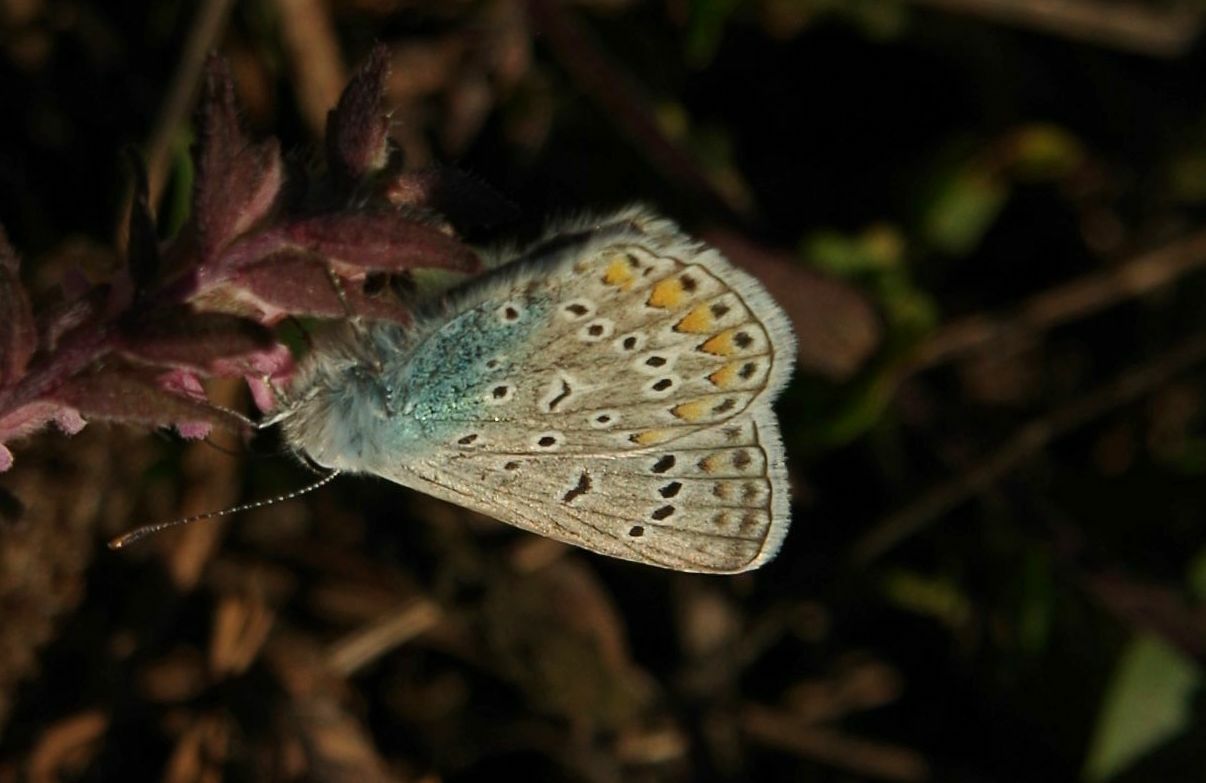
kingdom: Animalia
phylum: Arthropoda
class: Insecta
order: Lepidoptera
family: Lycaenidae
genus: Polyommatus
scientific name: Polyommatus icarus
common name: Common blue
